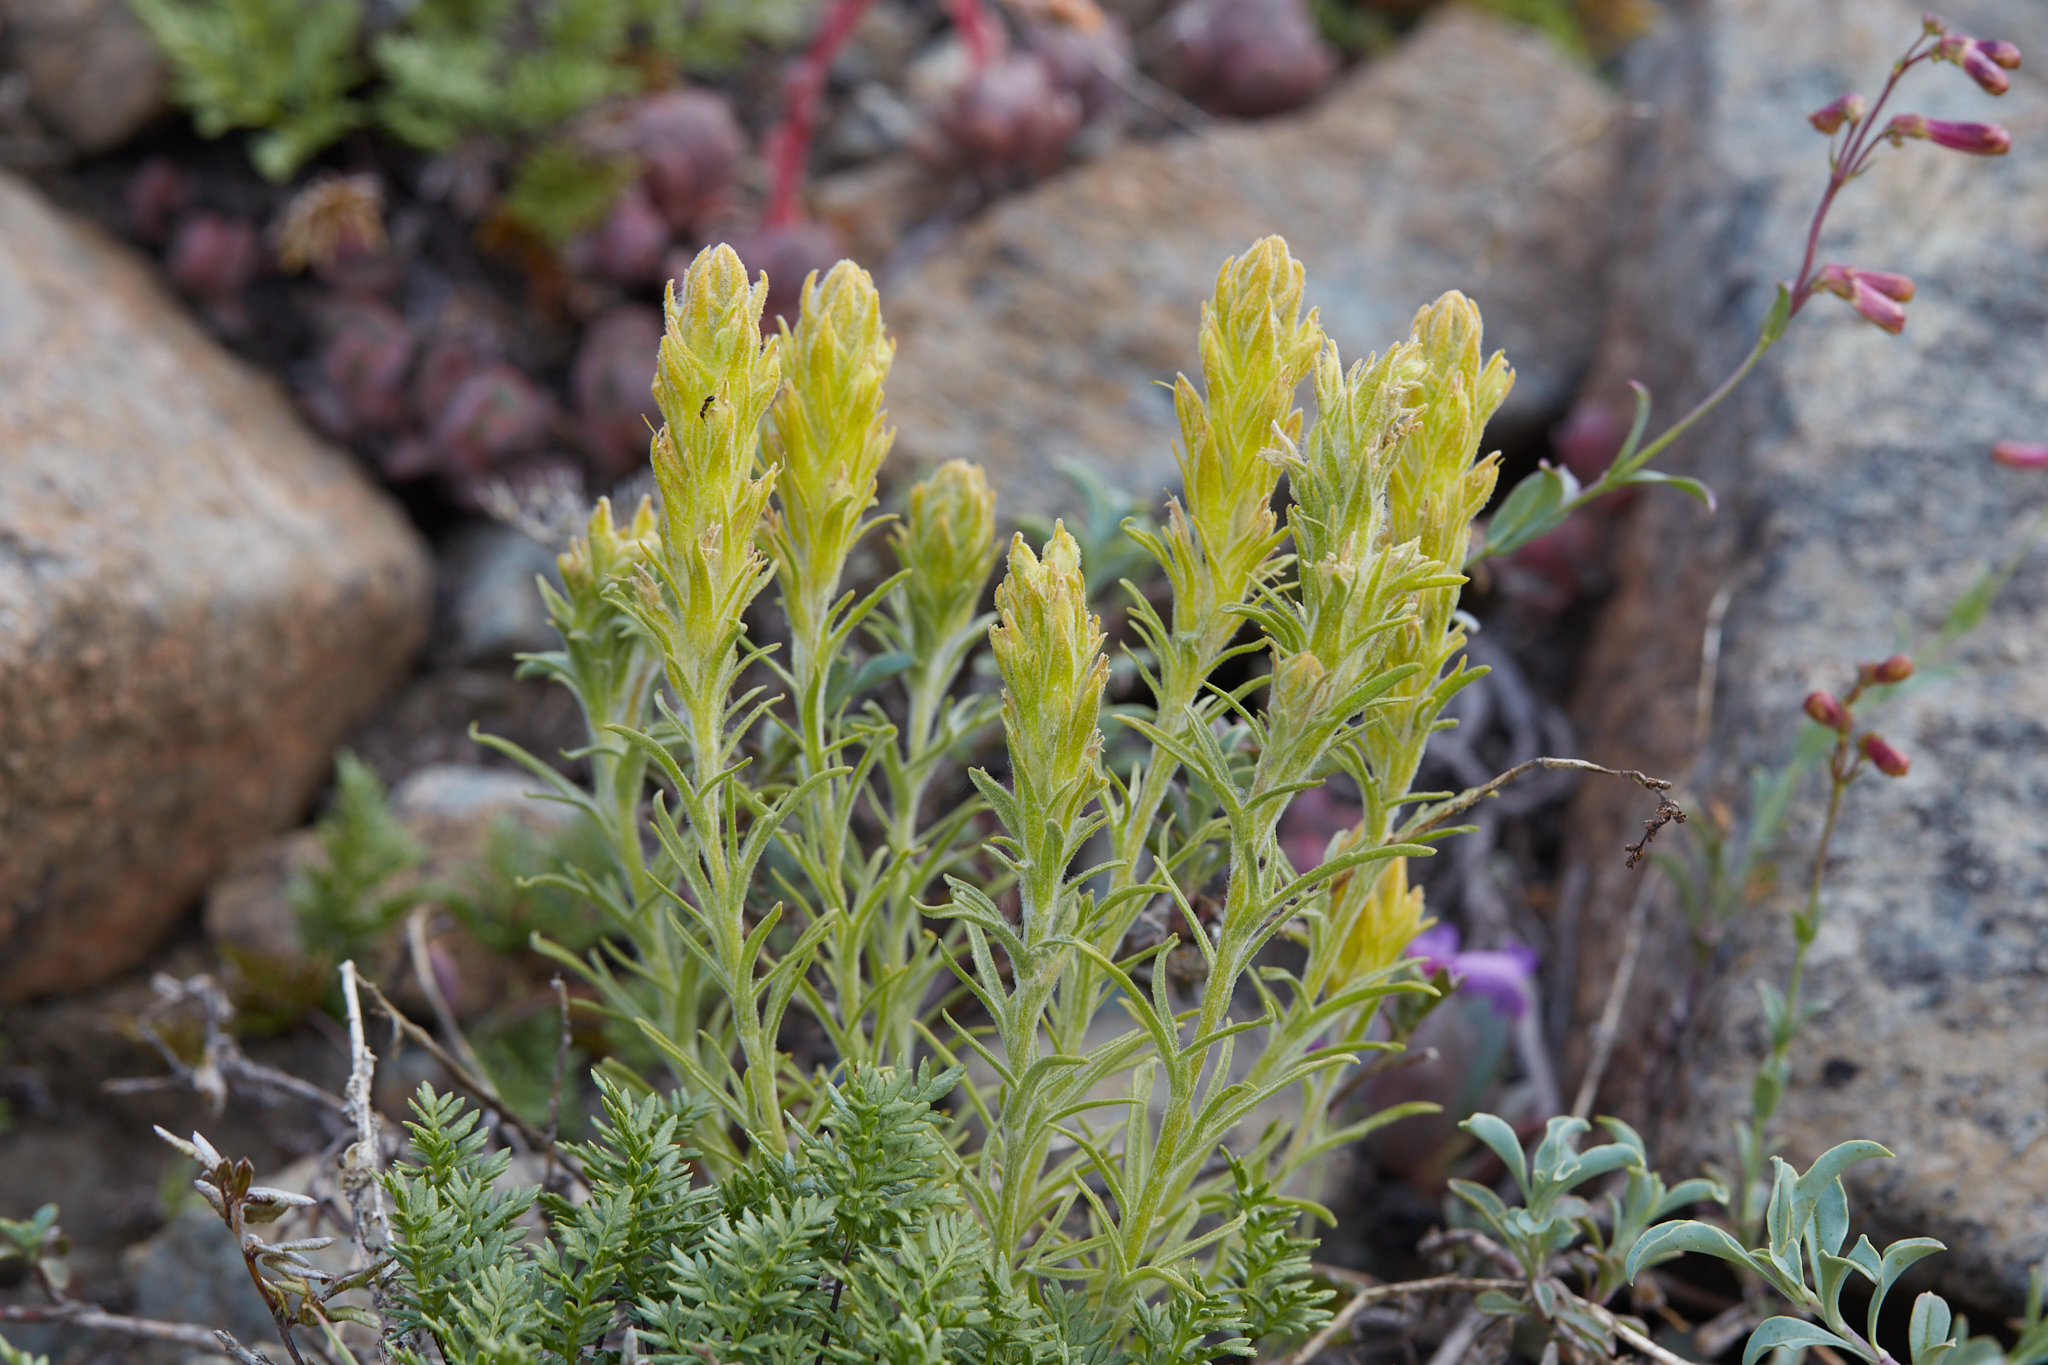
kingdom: Plantae
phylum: Tracheophyta
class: Magnoliopsida
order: Lamiales
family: Orobanchaceae
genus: Castilleja
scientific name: Castilleja arachnoidea
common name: Cobwebby indian paintbrush
